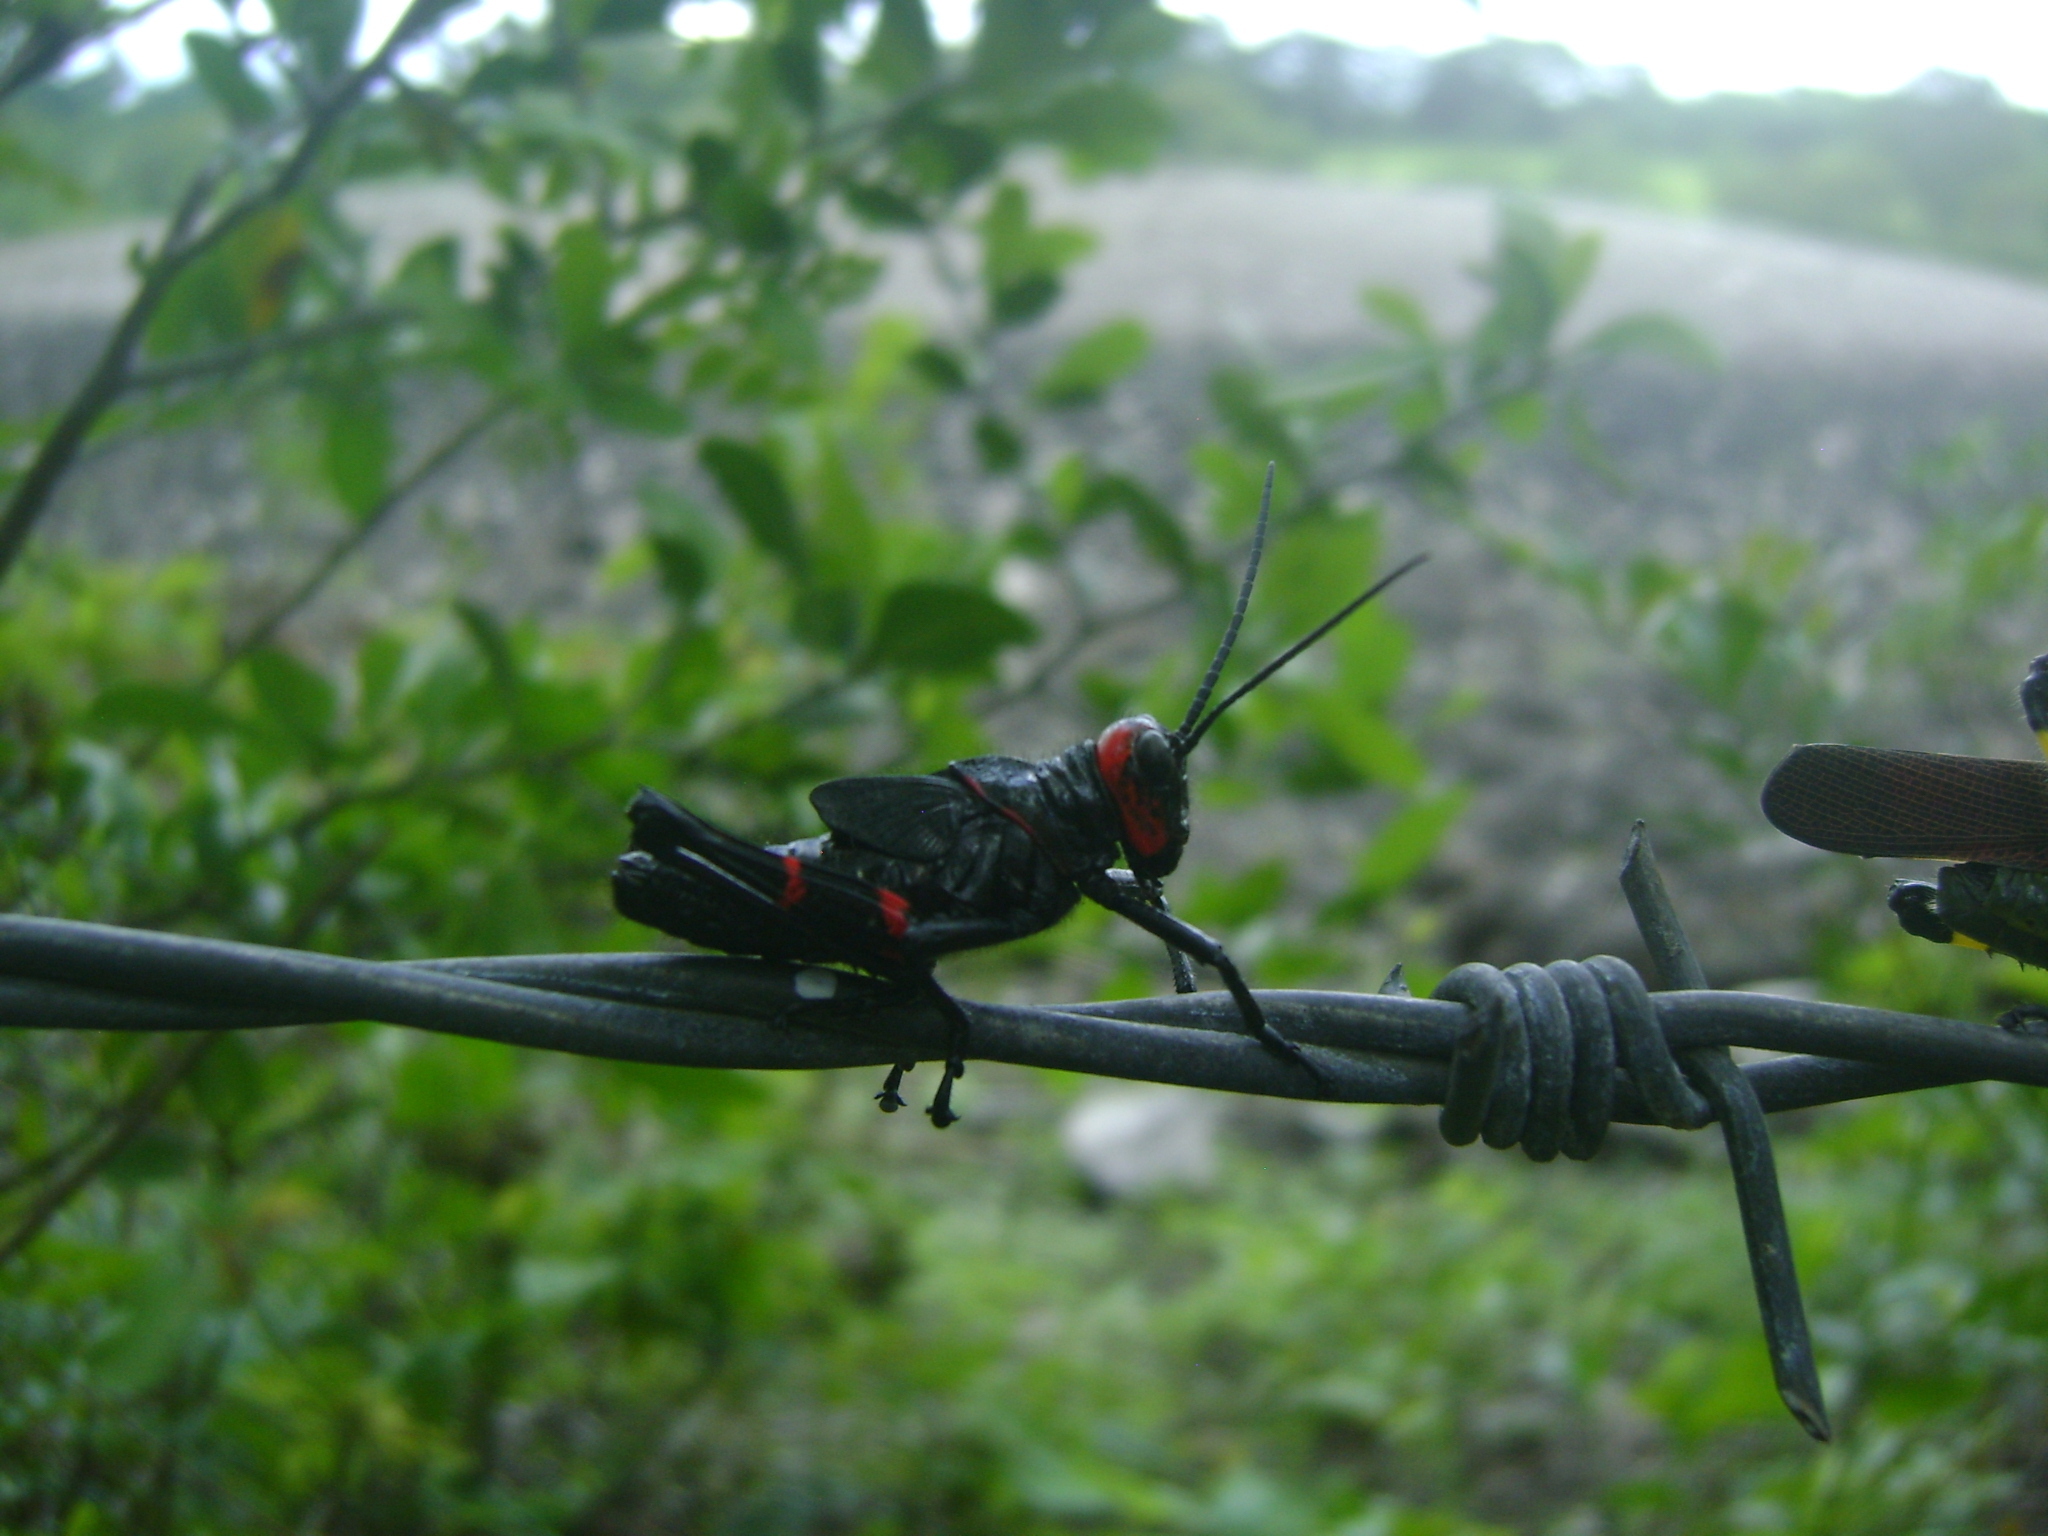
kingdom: Animalia
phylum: Arthropoda
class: Insecta
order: Orthoptera
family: Romaleidae
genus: Chromacris
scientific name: Chromacris colorata
